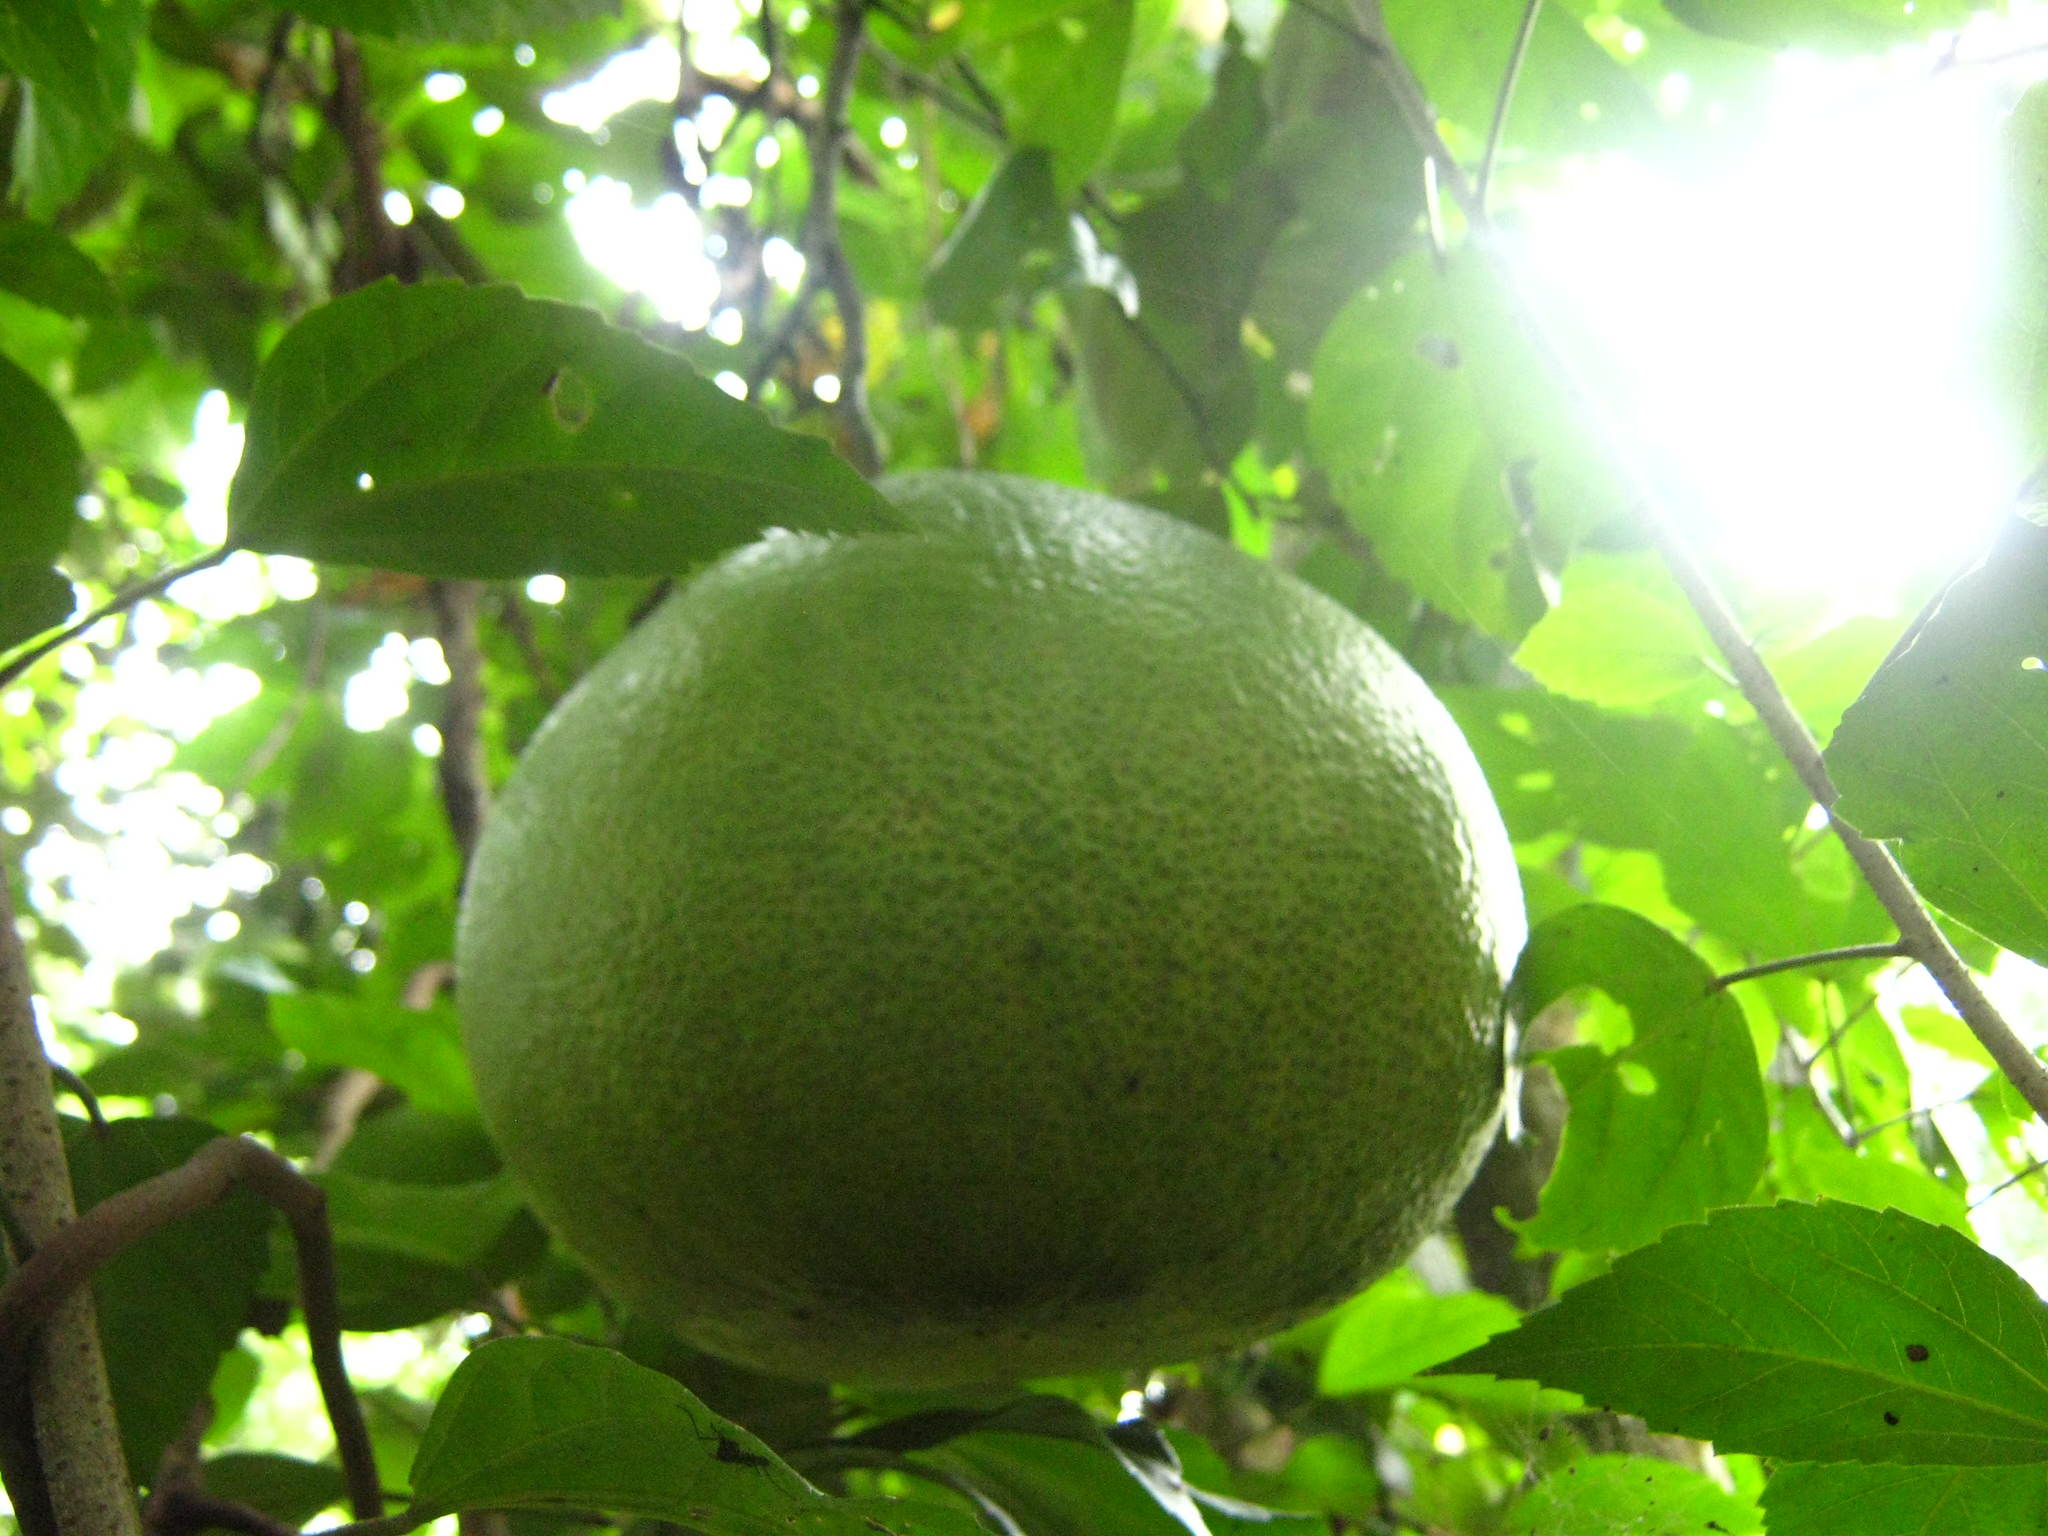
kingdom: Plantae
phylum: Tracheophyta
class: Magnoliopsida
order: Sapindales
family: Rutaceae
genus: Citrus
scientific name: Citrus maxima
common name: Pomelo
